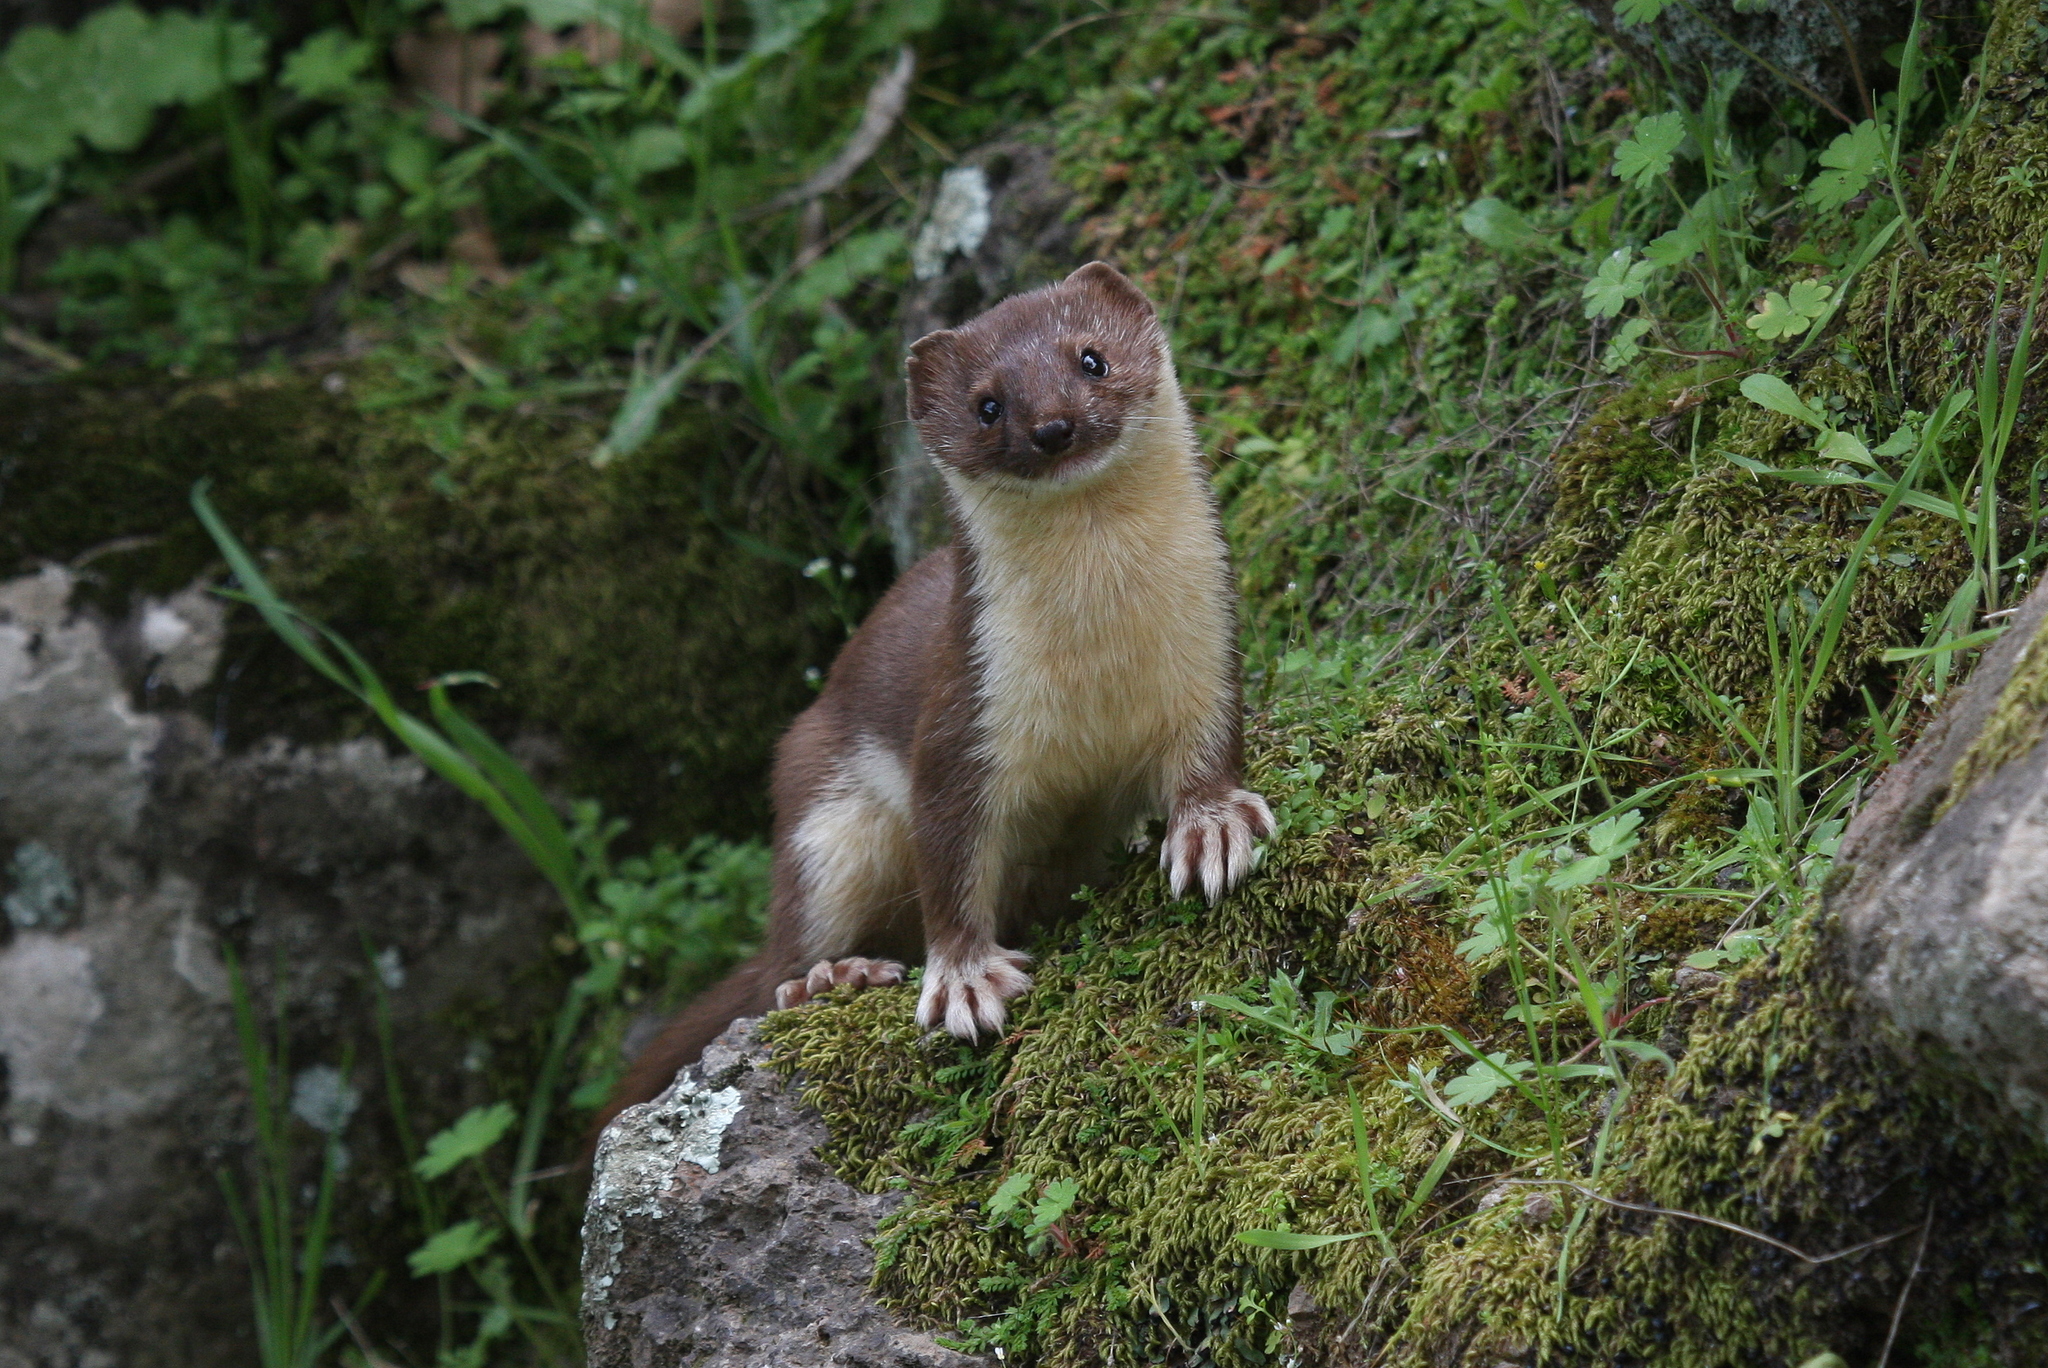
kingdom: Animalia
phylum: Chordata
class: Mammalia
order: Carnivora
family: Mustelidae
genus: Mustela
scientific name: Mustela nivalis
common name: Least weasel
